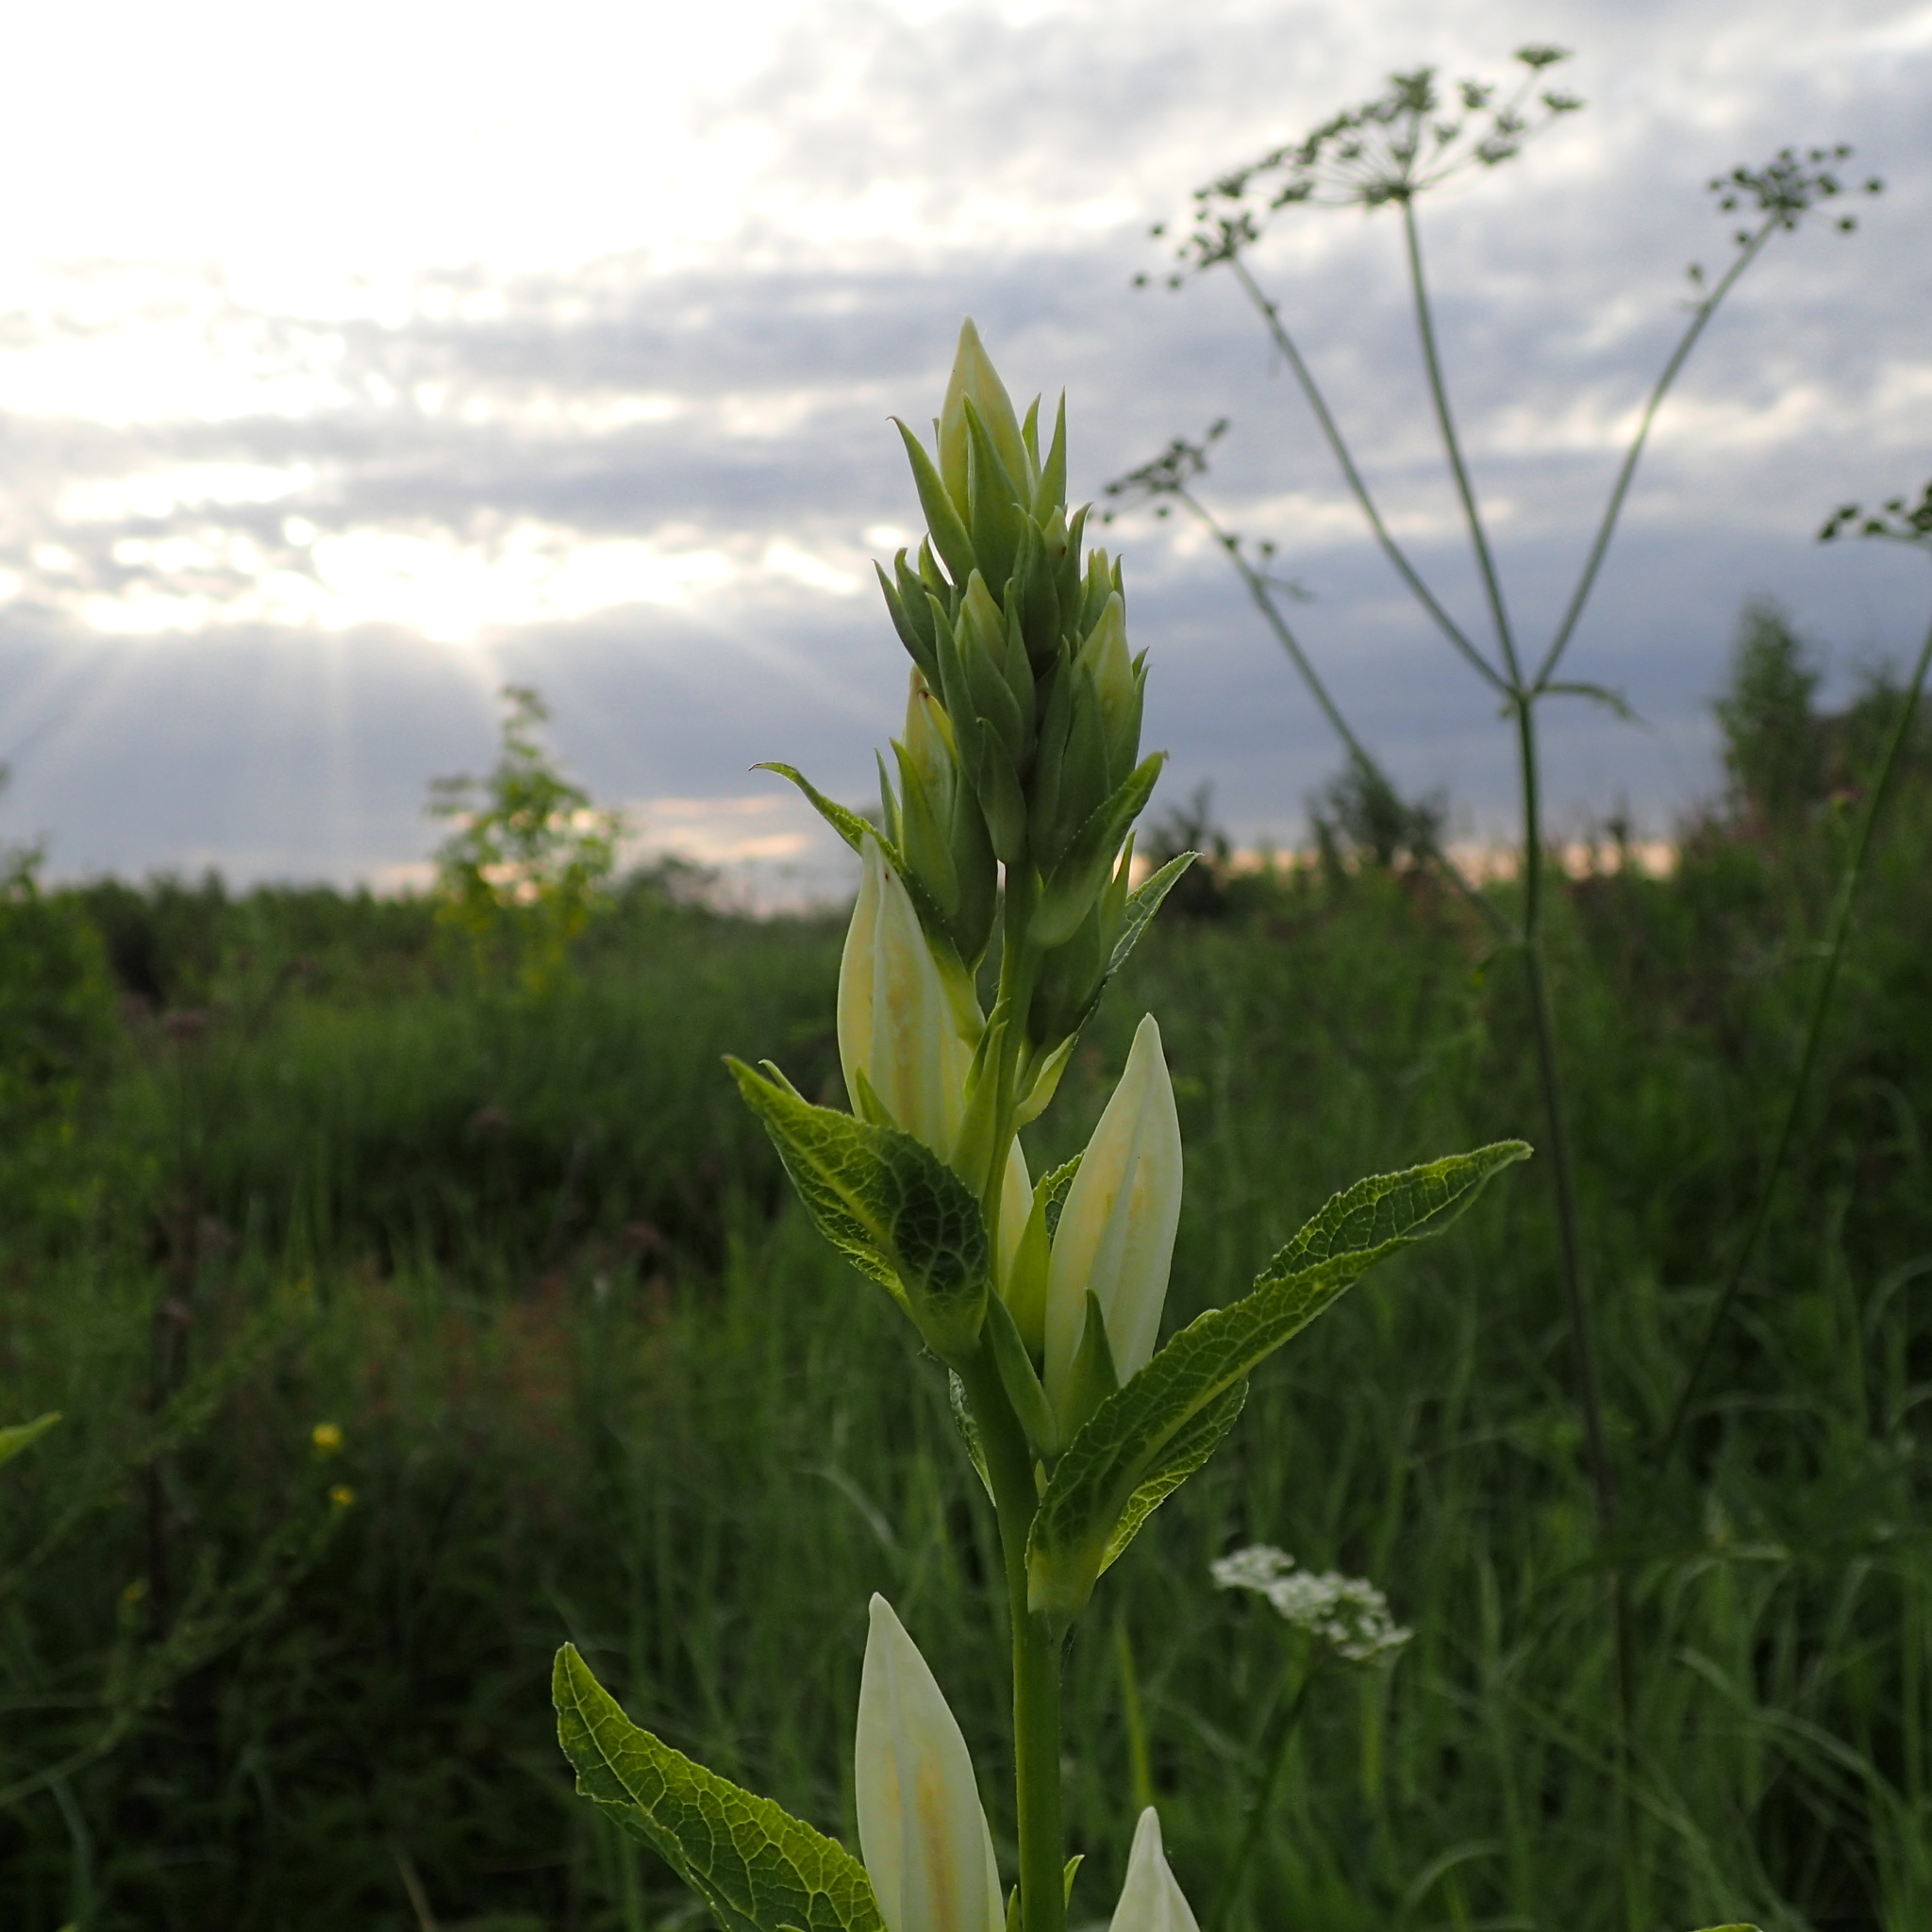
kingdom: Plantae
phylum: Tracheophyta
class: Magnoliopsida
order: Asterales
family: Campanulaceae
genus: Campanula
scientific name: Campanula latifolia
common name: Giant bellflower
